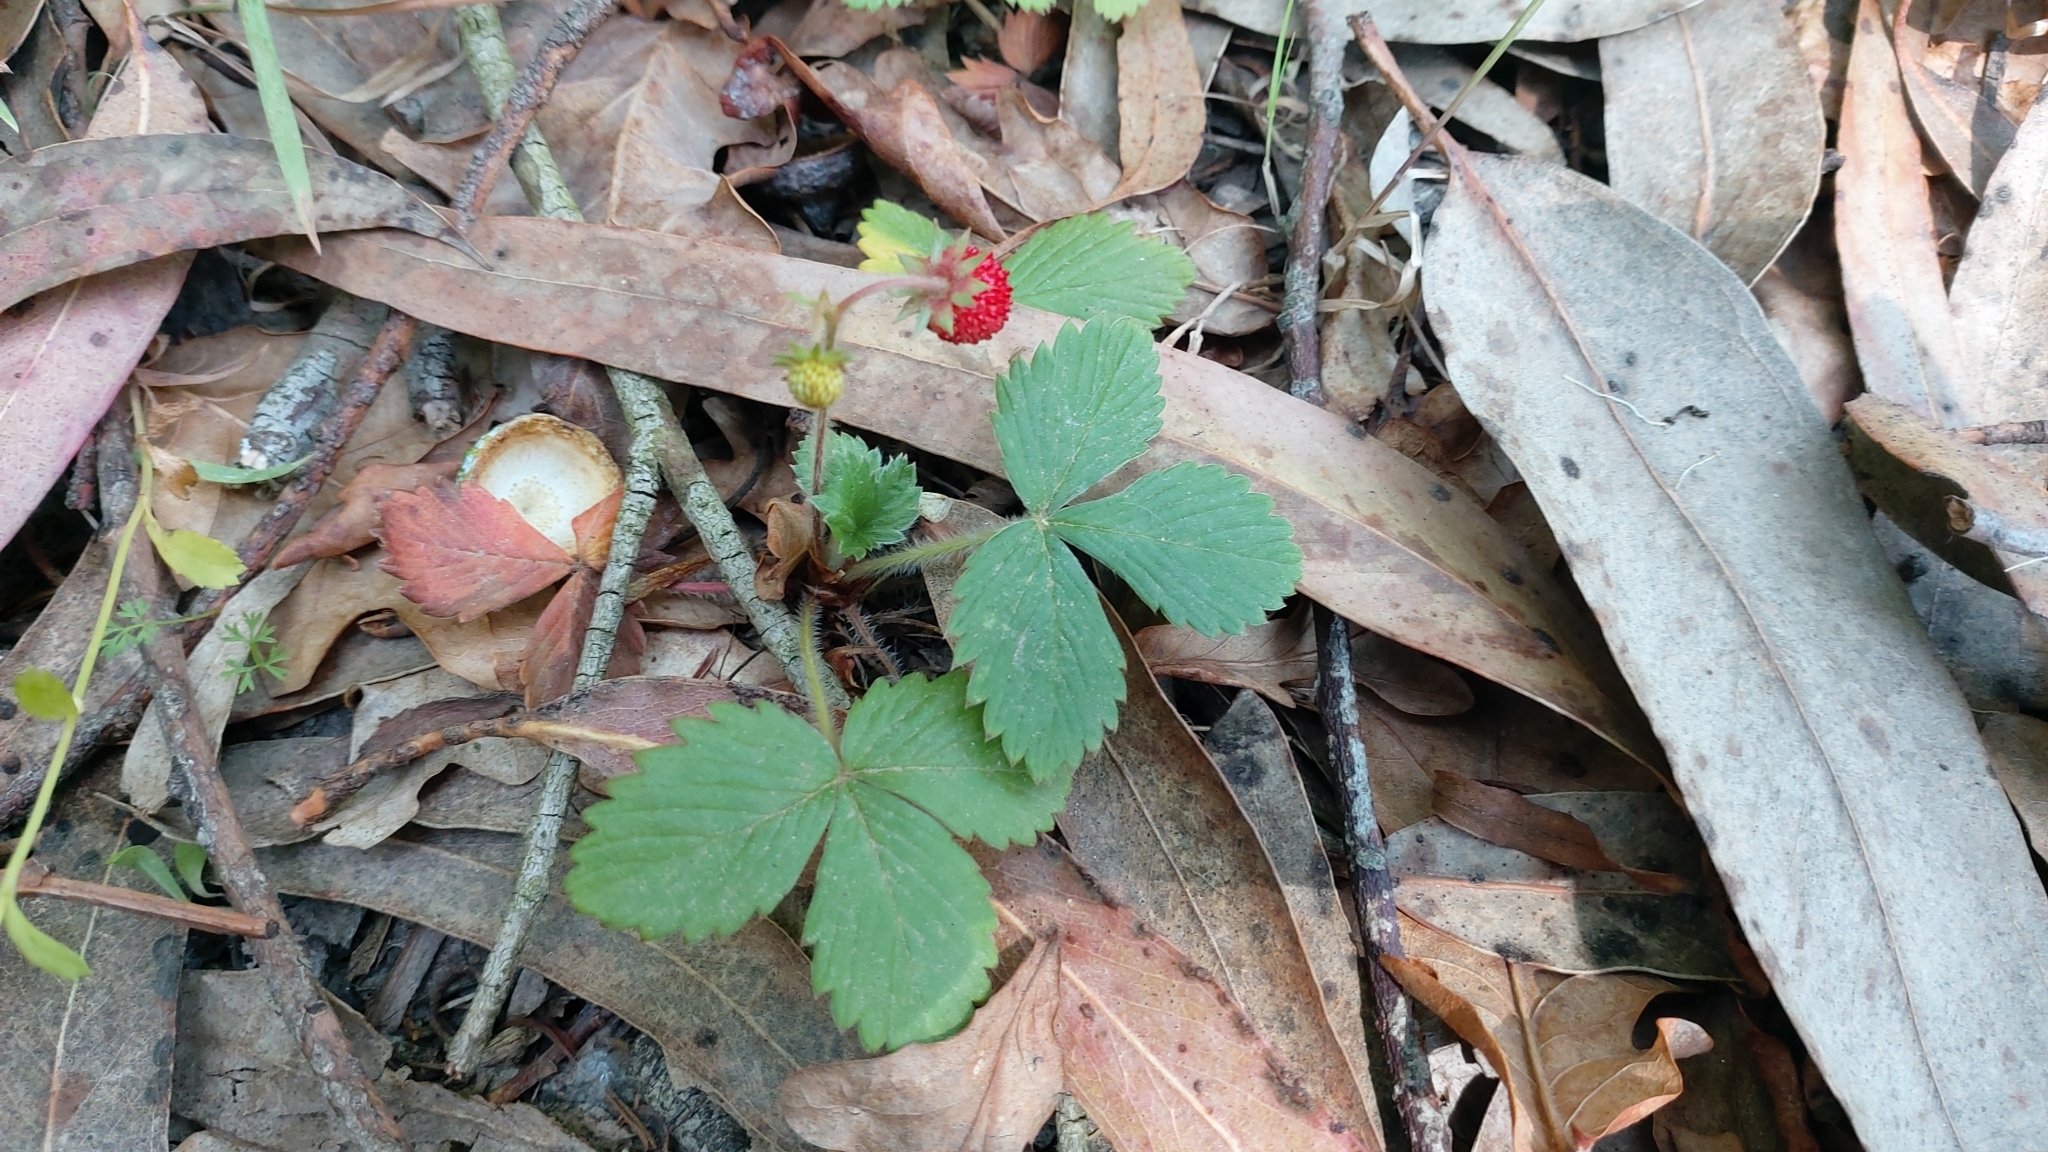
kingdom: Plantae
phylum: Tracheophyta
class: Magnoliopsida
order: Rosales
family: Rosaceae
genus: Fragaria
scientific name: Fragaria vesca
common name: Wild strawberry
